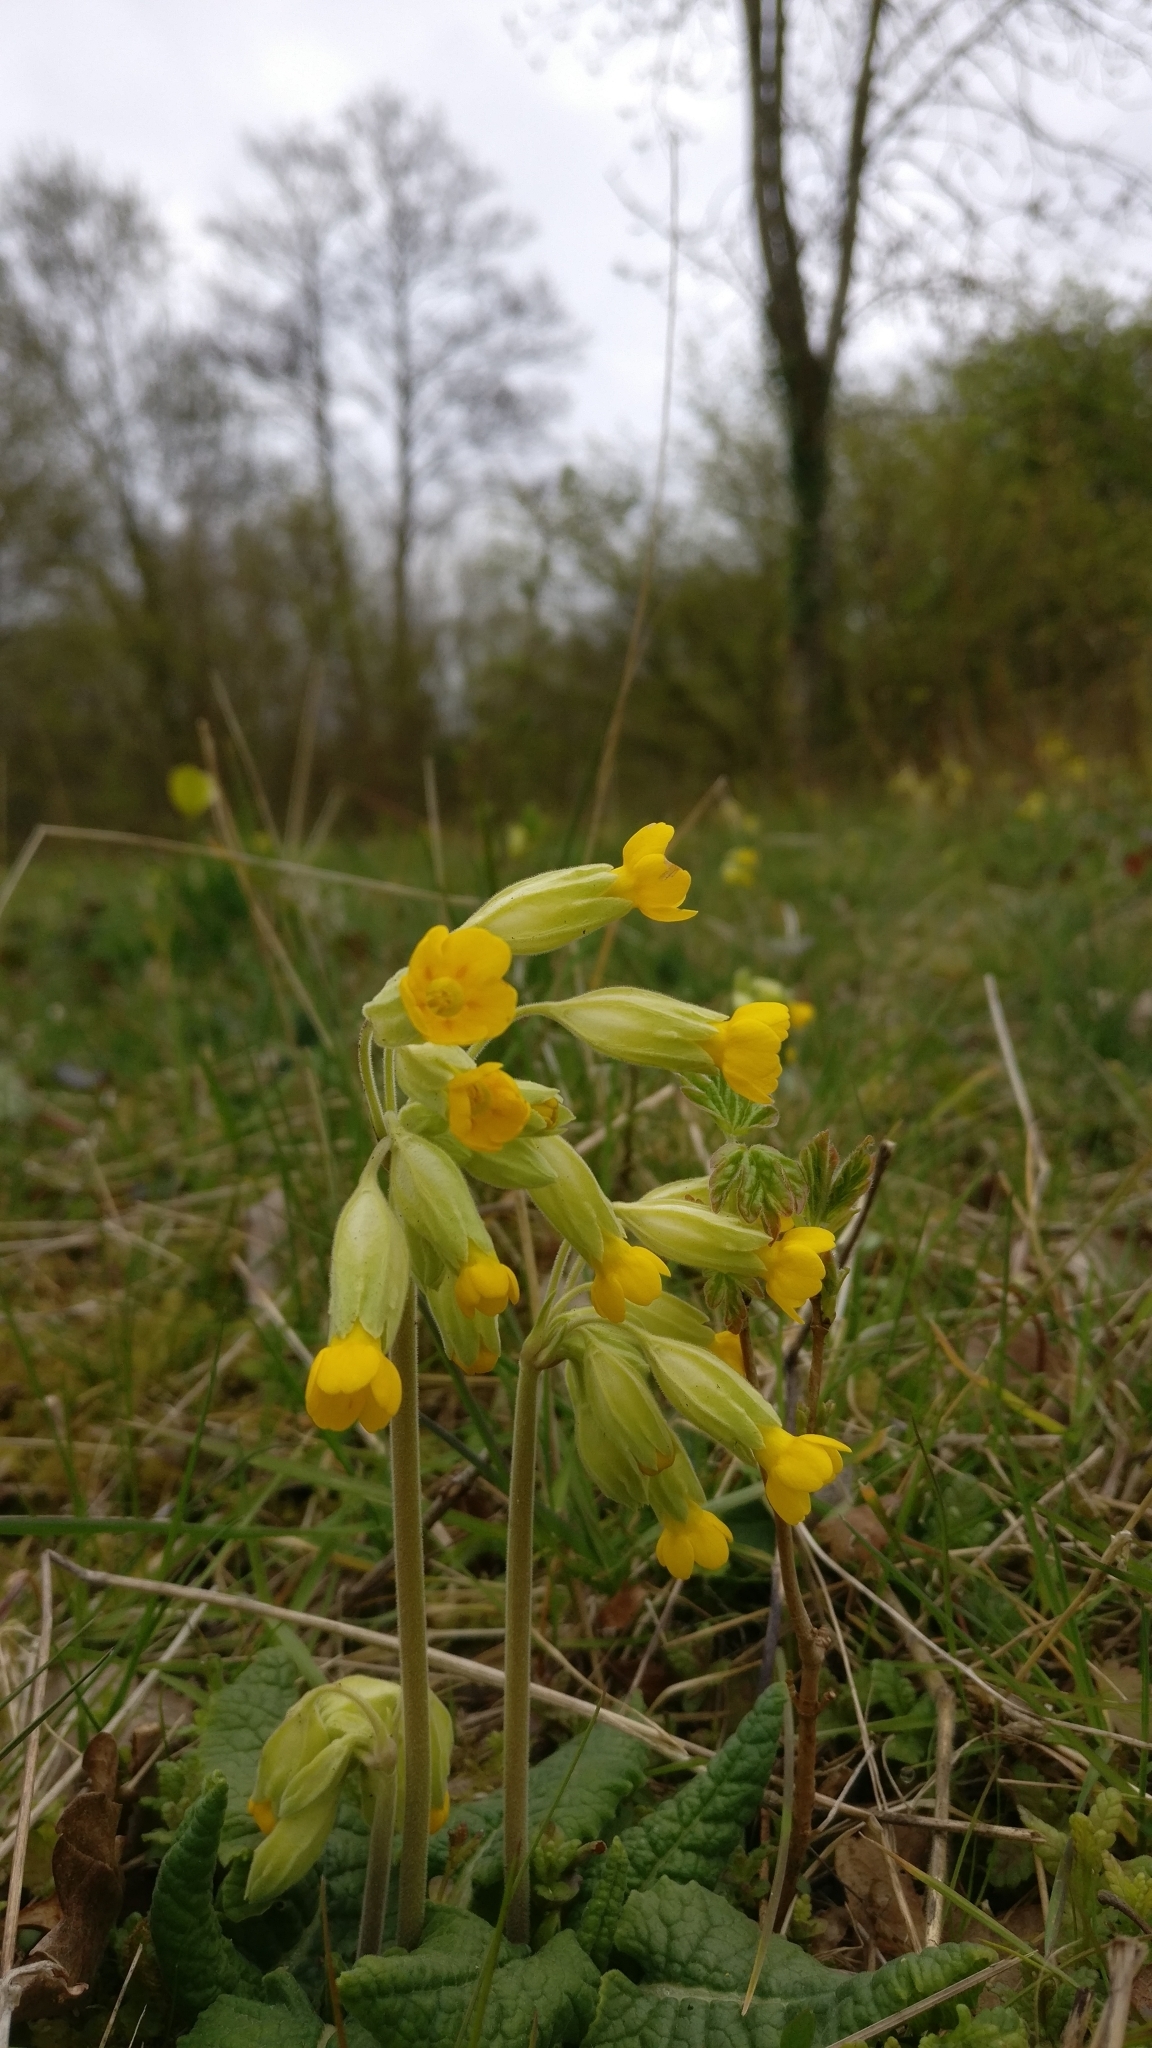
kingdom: Plantae
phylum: Tracheophyta
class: Magnoliopsida
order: Ericales
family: Primulaceae
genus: Primula
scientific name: Primula veris
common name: Cowslip
